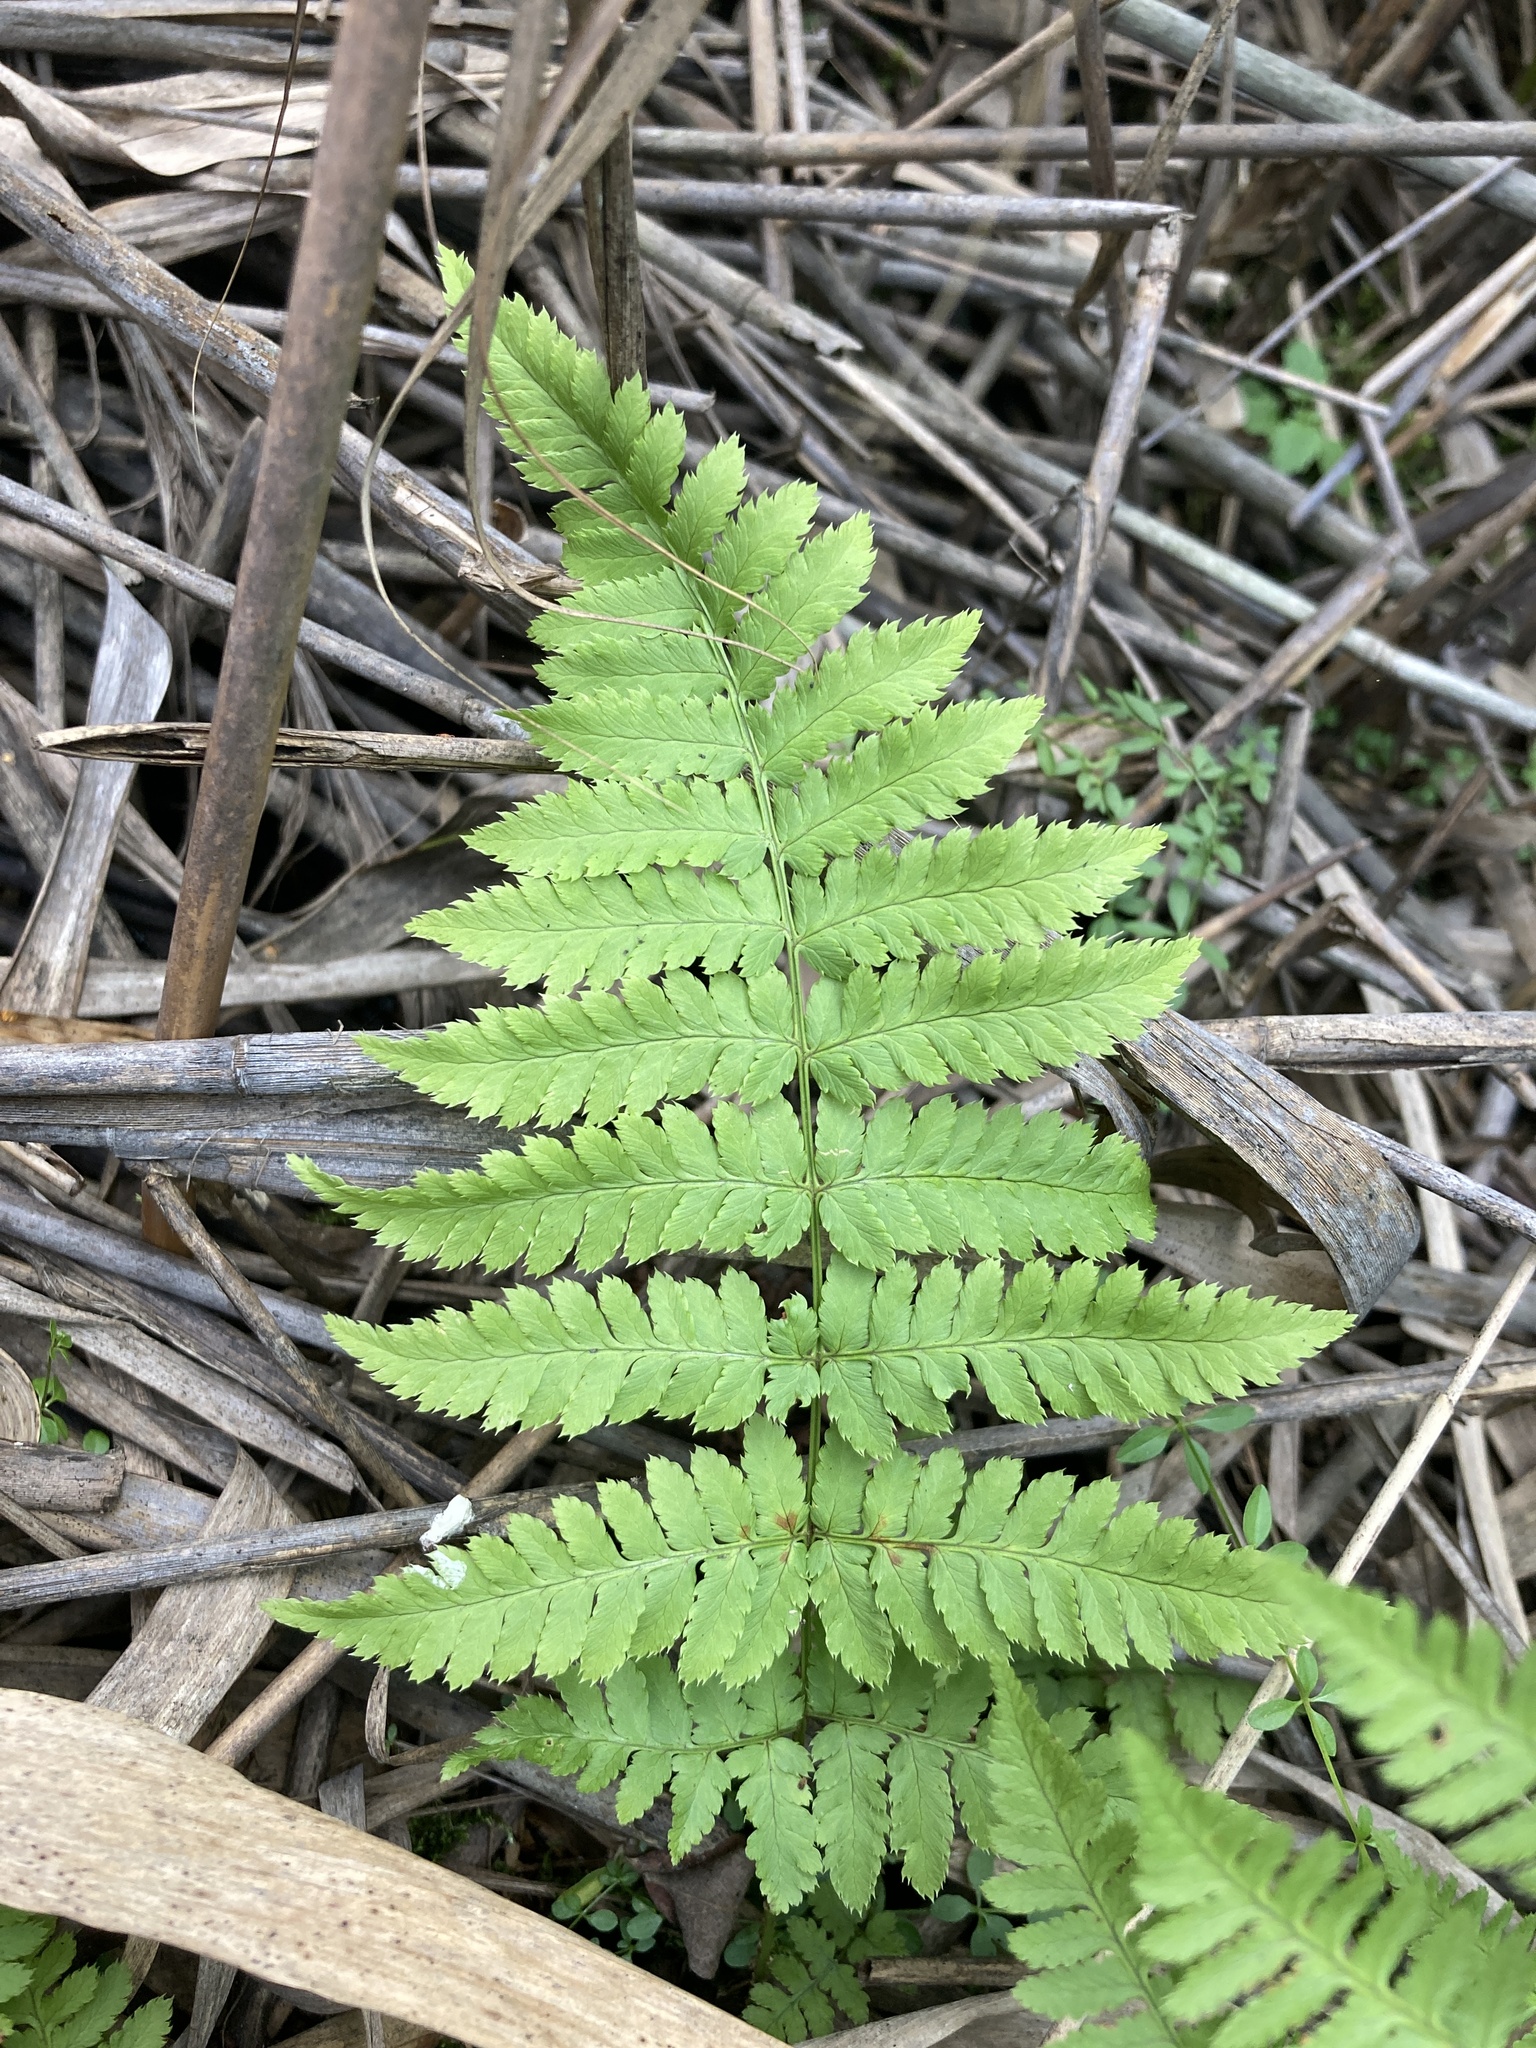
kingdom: Plantae
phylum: Tracheophyta
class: Polypodiopsida
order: Polypodiales
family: Dryopteridaceae
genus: Dryopteris
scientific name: Dryopteris carthusiana
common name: Narrow buckler-fern
